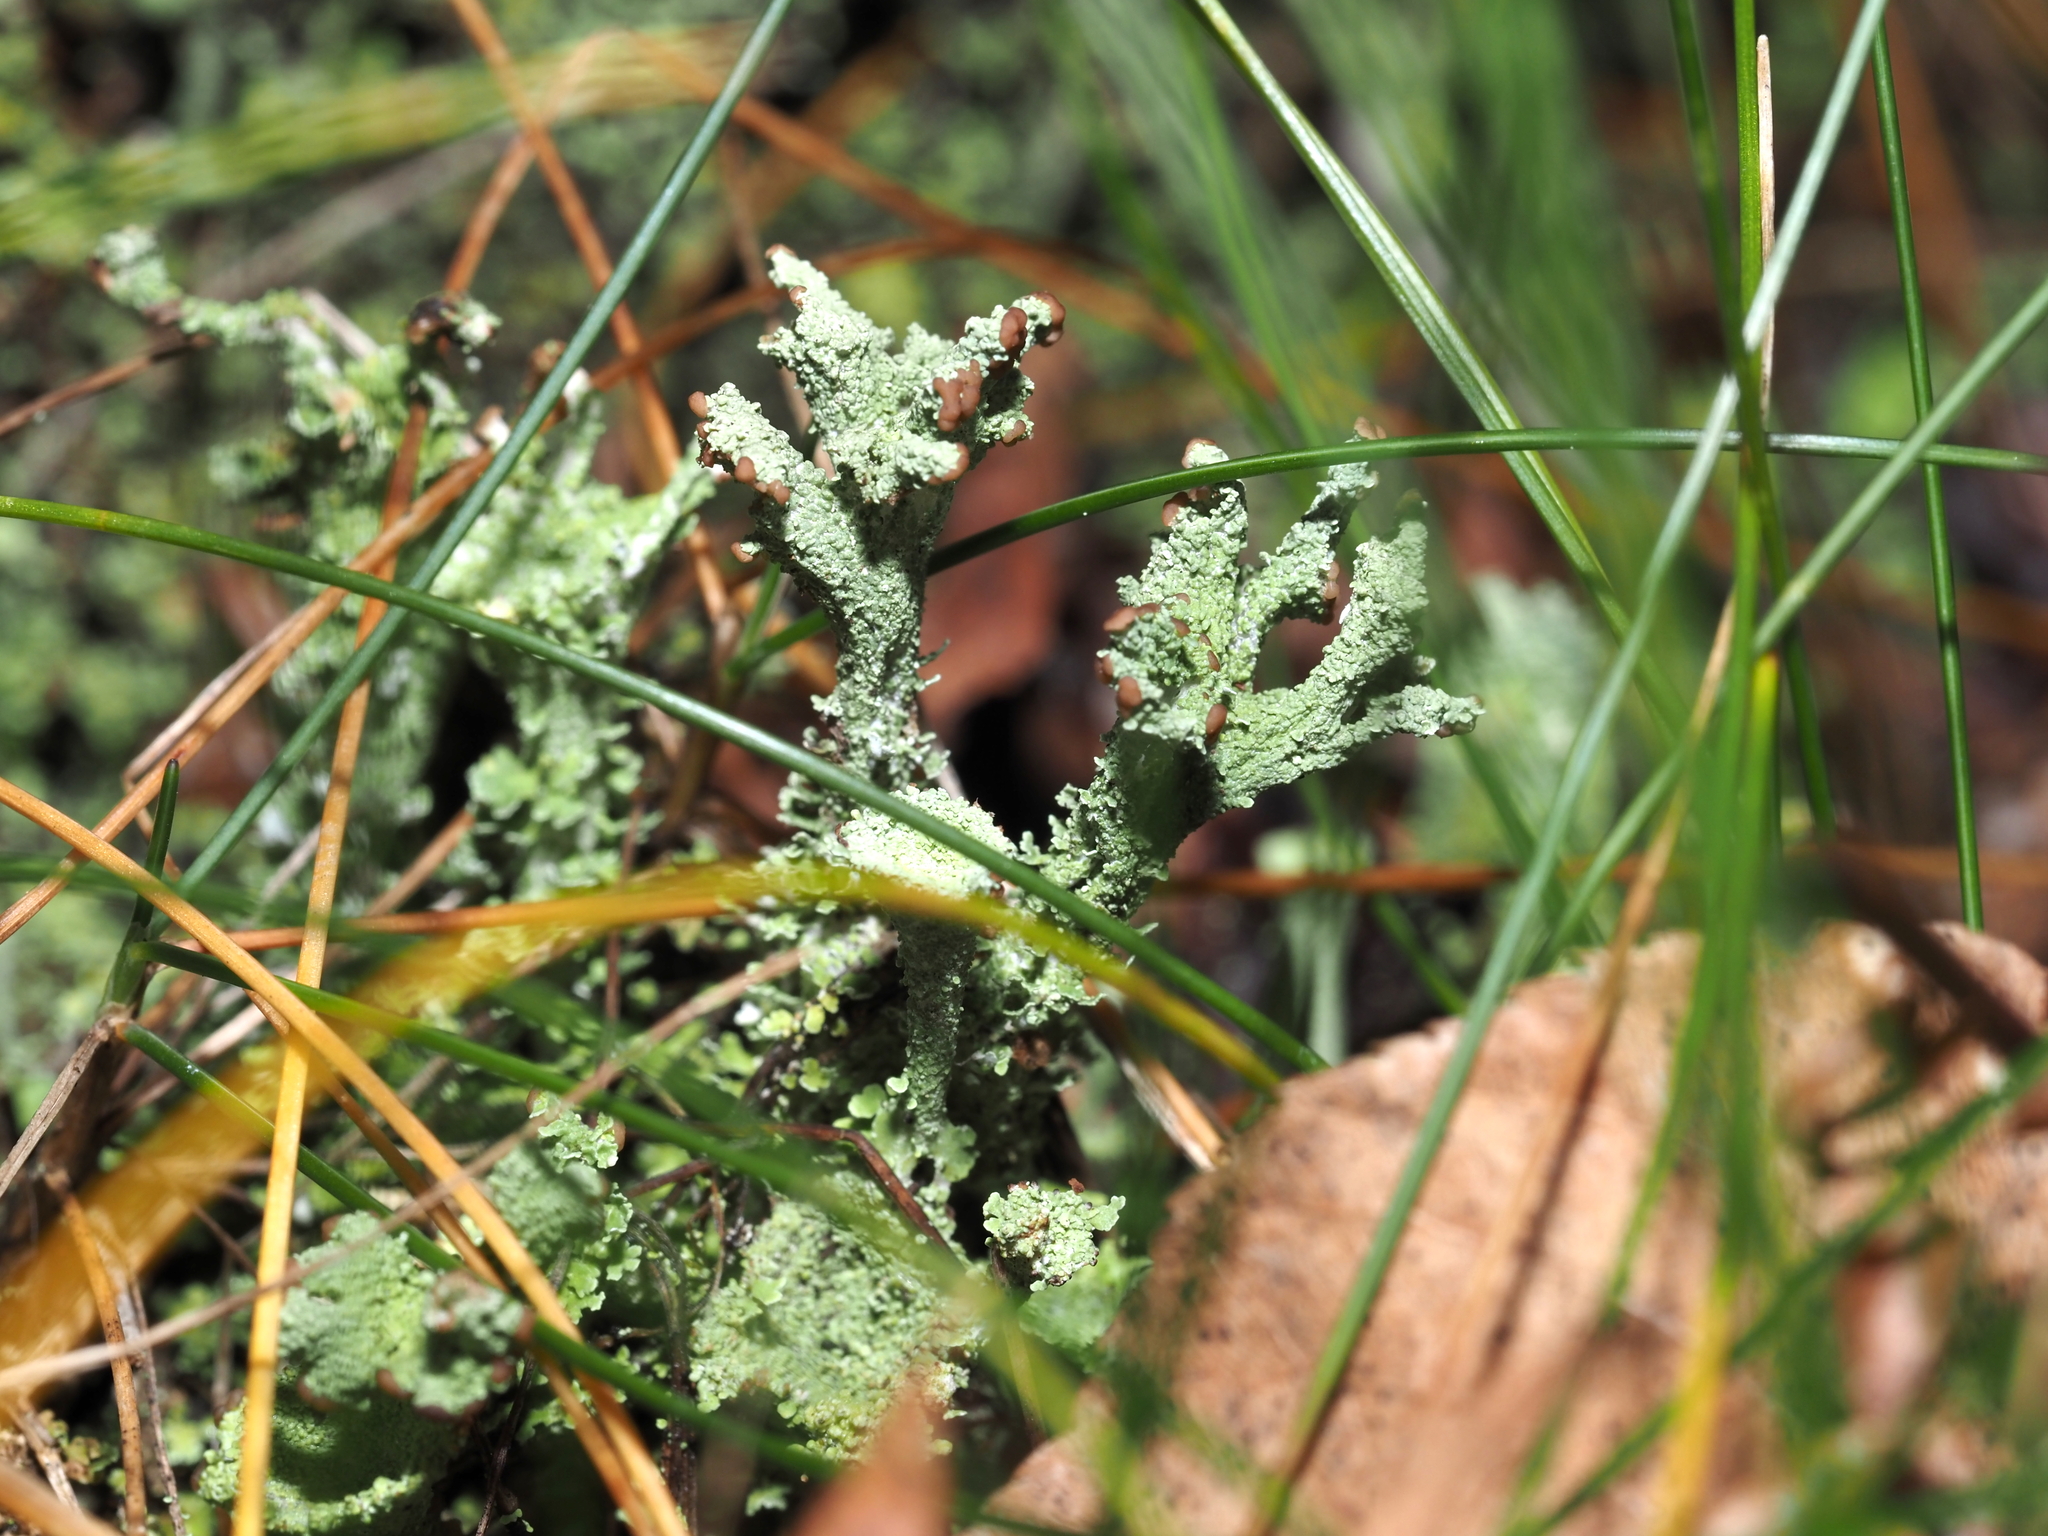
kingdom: Fungi
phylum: Ascomycota
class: Lecanoromycetes
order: Lecanorales
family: Cladoniaceae
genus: Cladonia
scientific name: Cladonia squamosa
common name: Dragon horn
